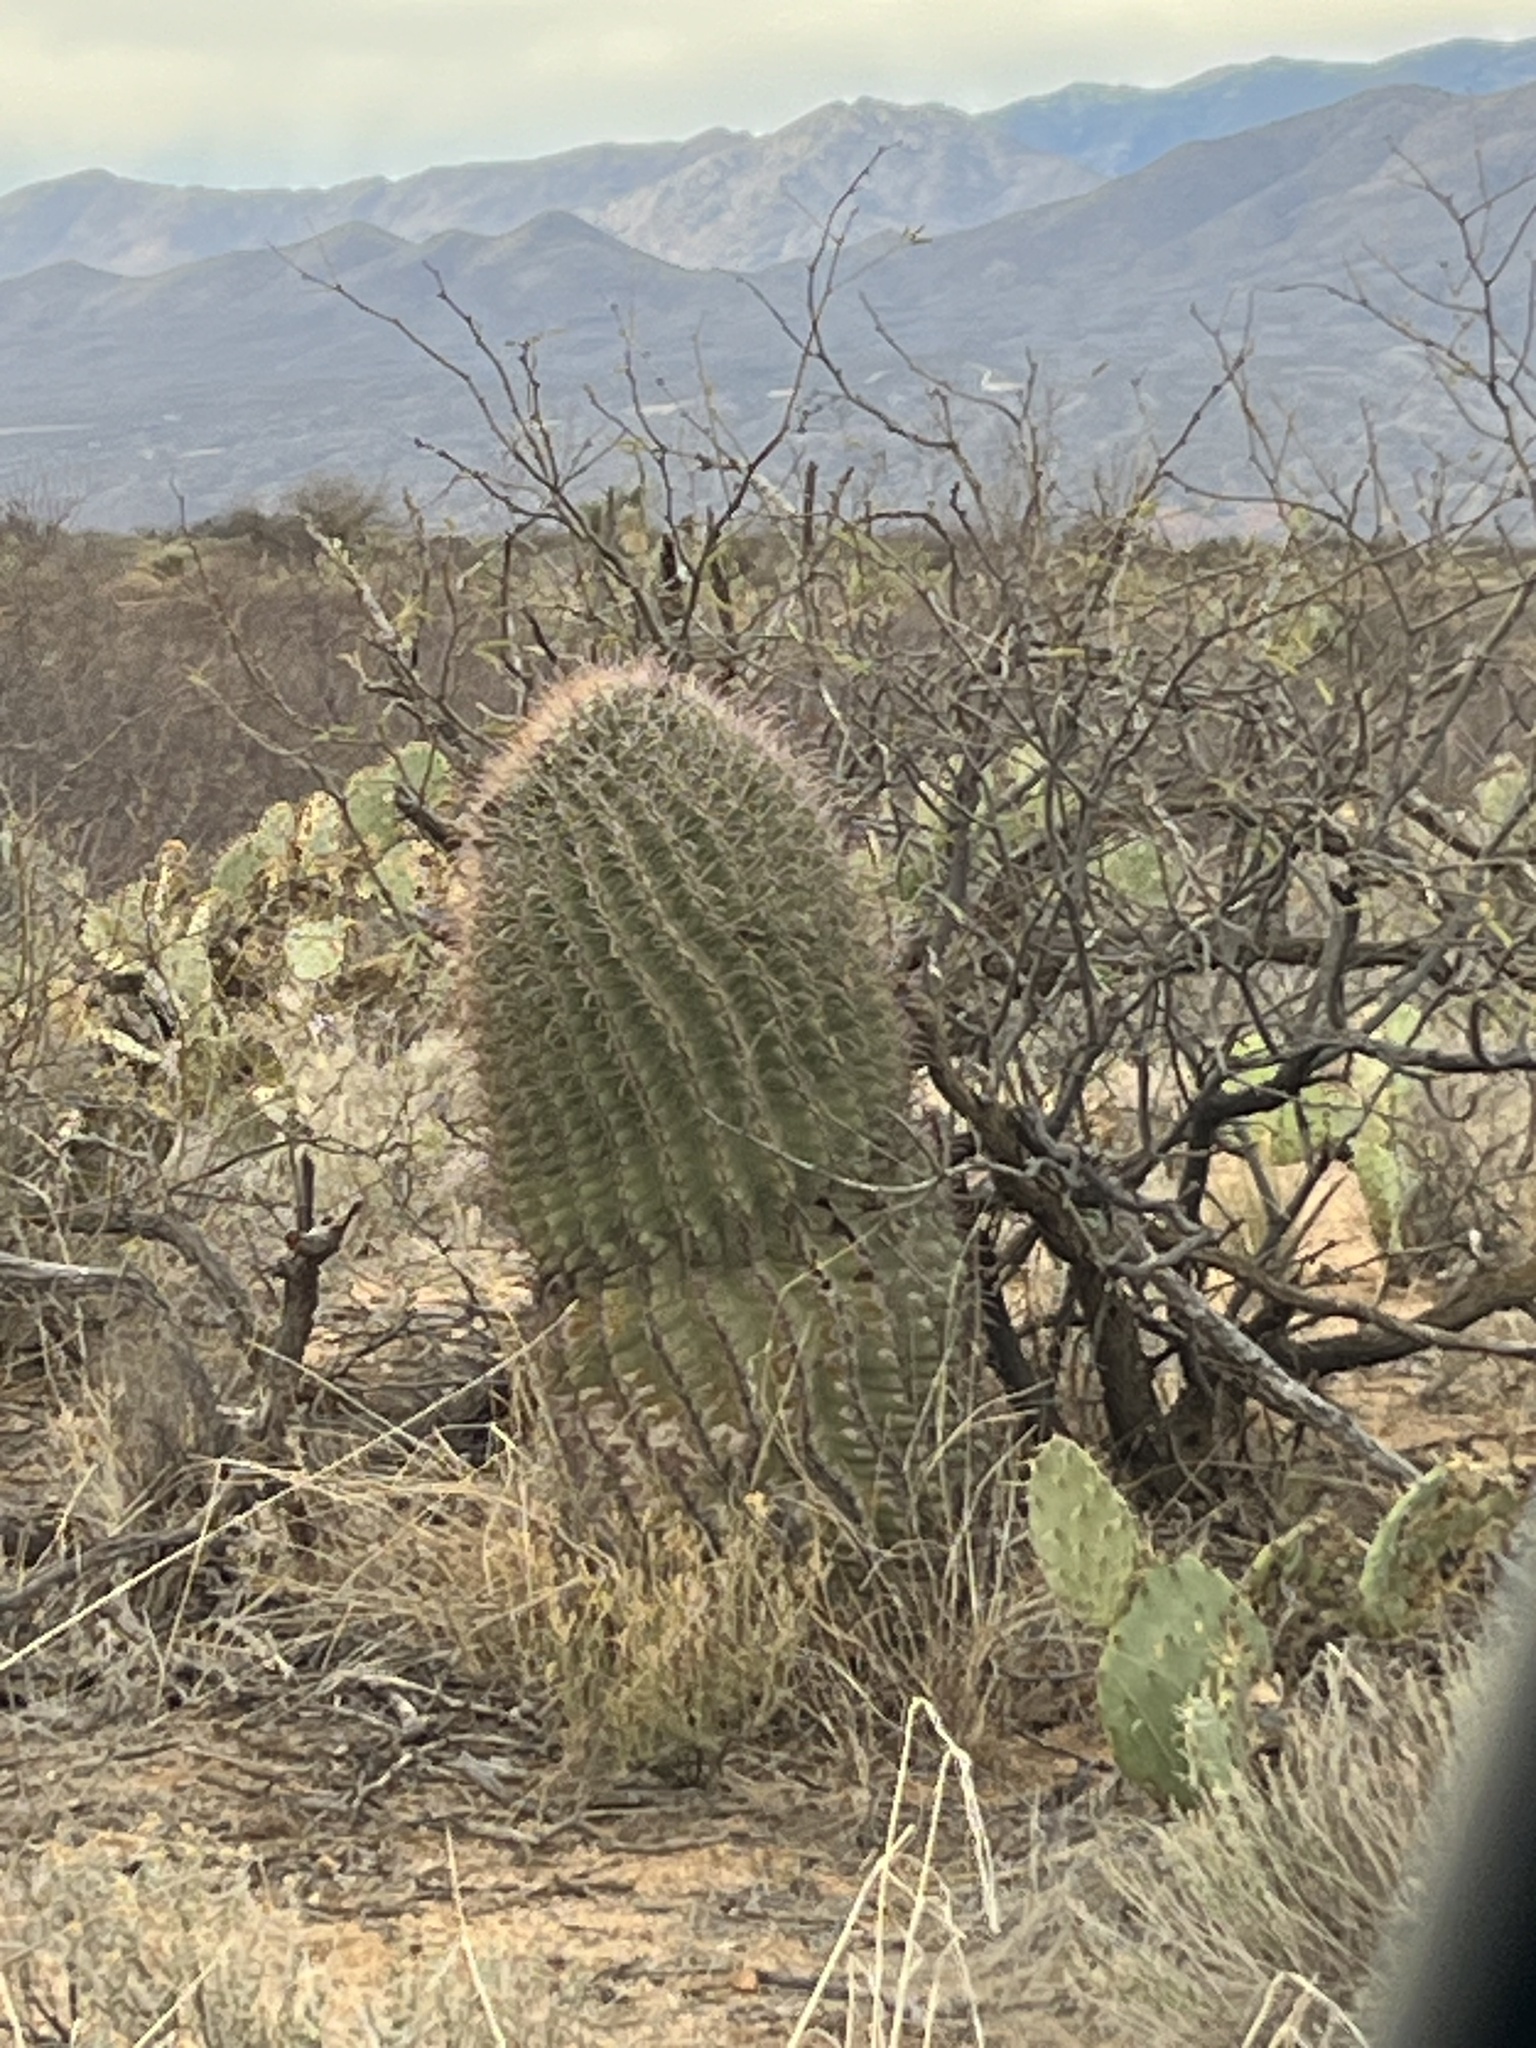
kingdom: Plantae
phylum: Tracheophyta
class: Magnoliopsida
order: Caryophyllales
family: Cactaceae
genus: Ferocactus
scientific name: Ferocactus wislizeni
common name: Candy barrel cactus
